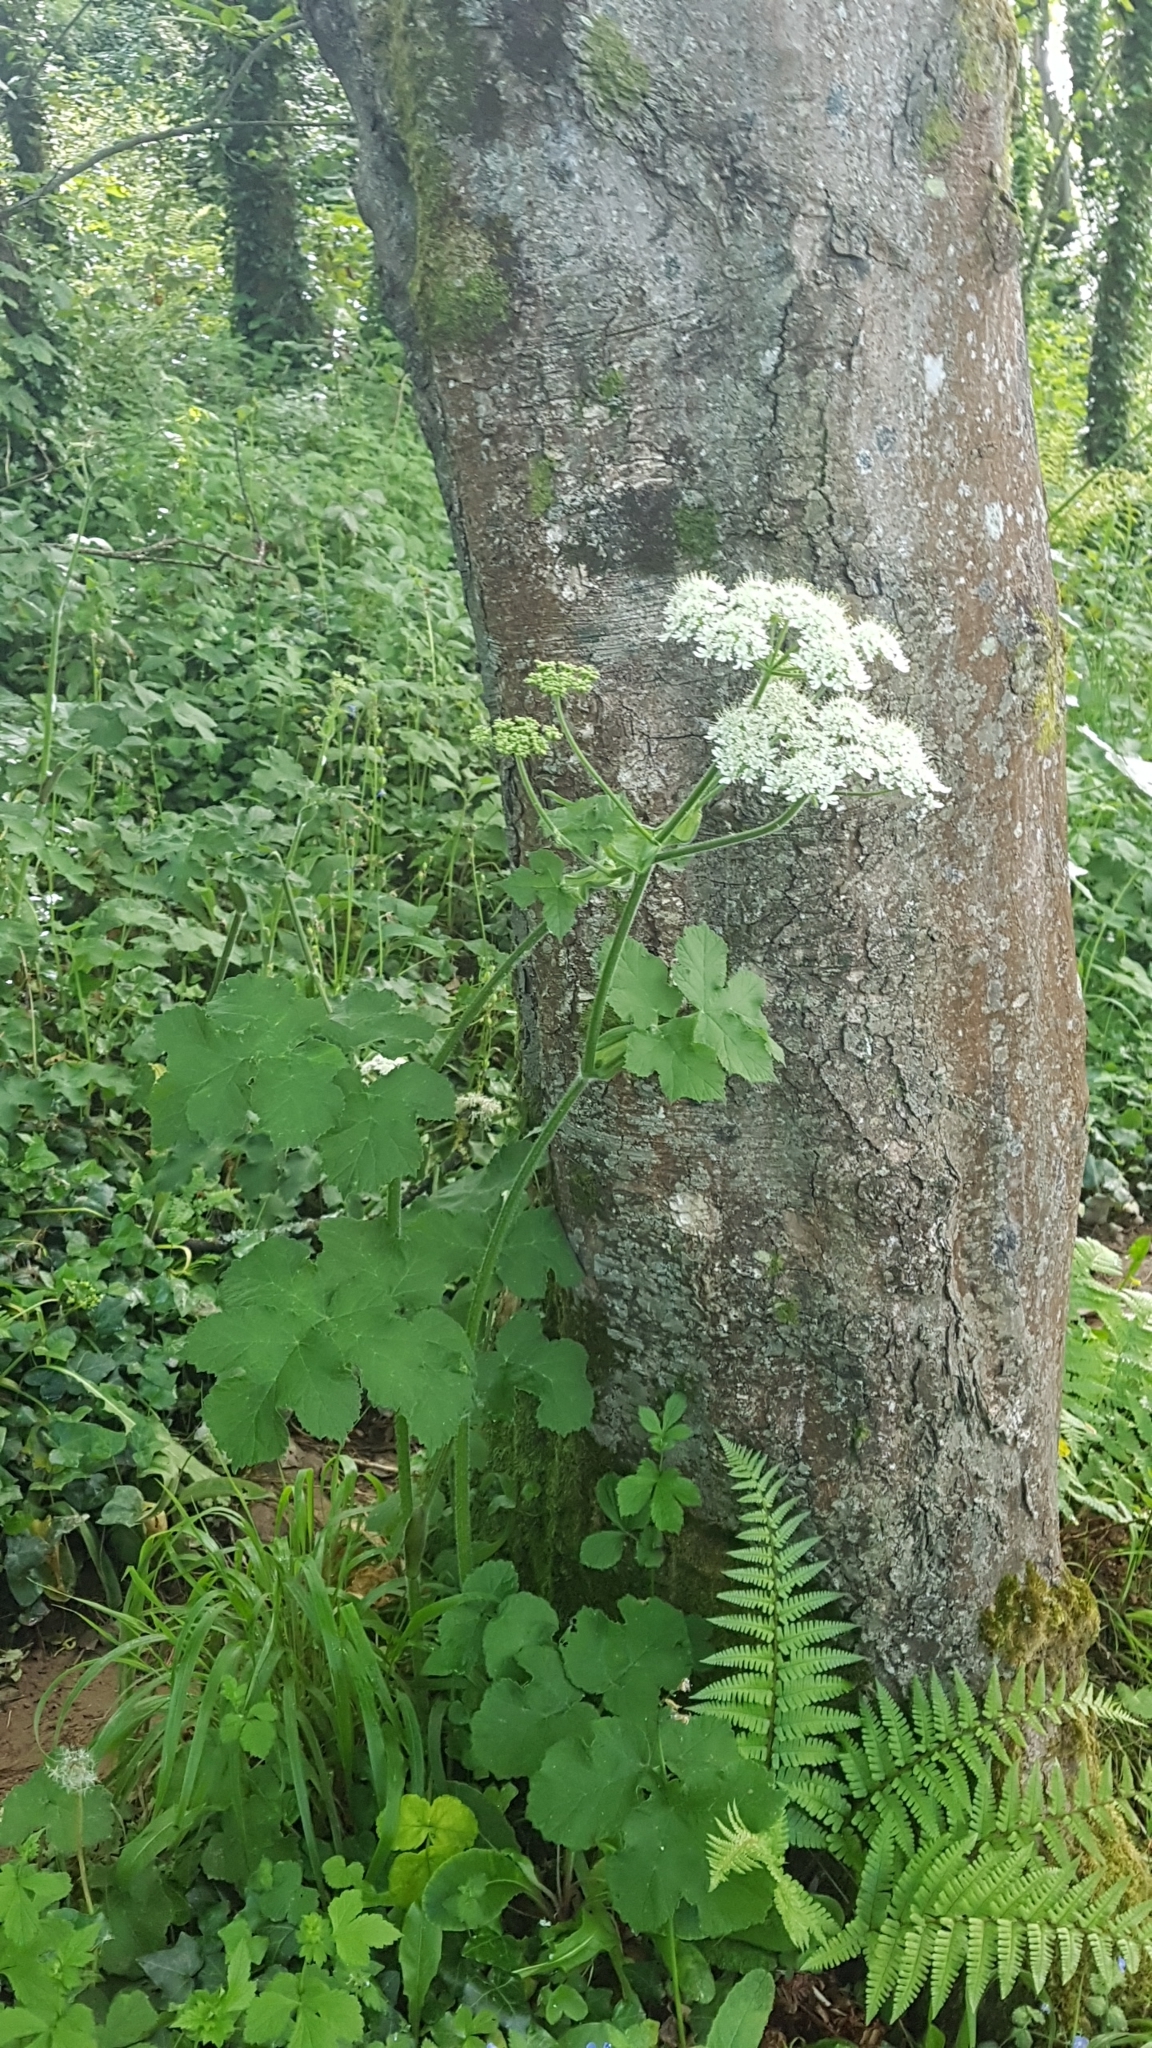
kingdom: Plantae
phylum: Tracheophyta
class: Magnoliopsida
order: Apiales
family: Apiaceae
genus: Heracleum
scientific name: Heracleum sphondylium
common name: Hogweed
